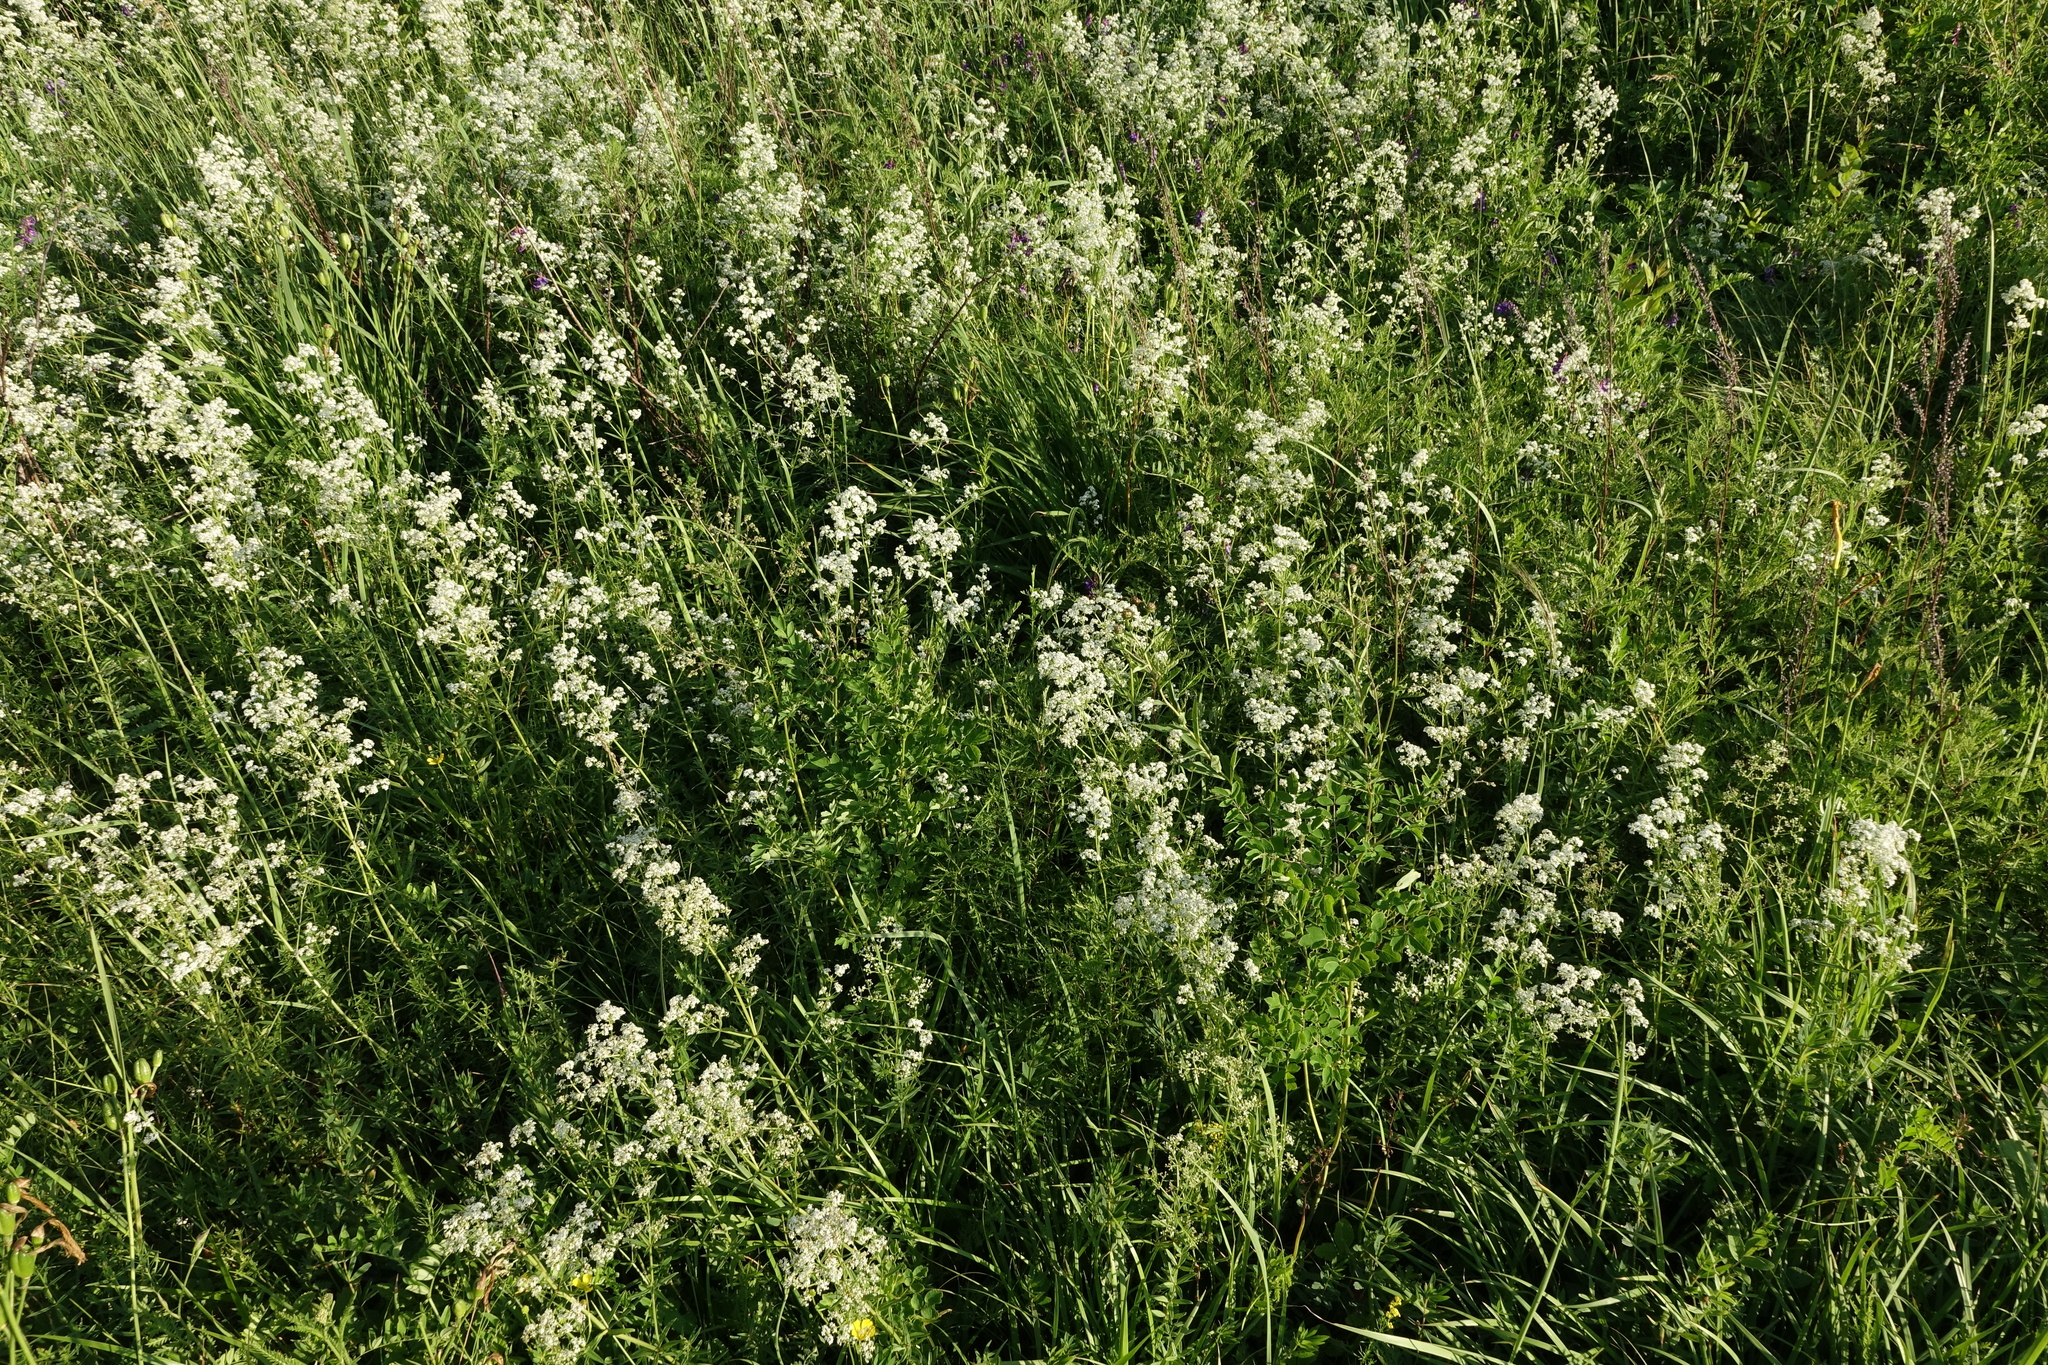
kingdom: Plantae
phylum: Tracheophyta
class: Magnoliopsida
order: Gentianales
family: Rubiaceae
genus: Galium
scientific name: Galium boreale
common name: Northern bedstraw
